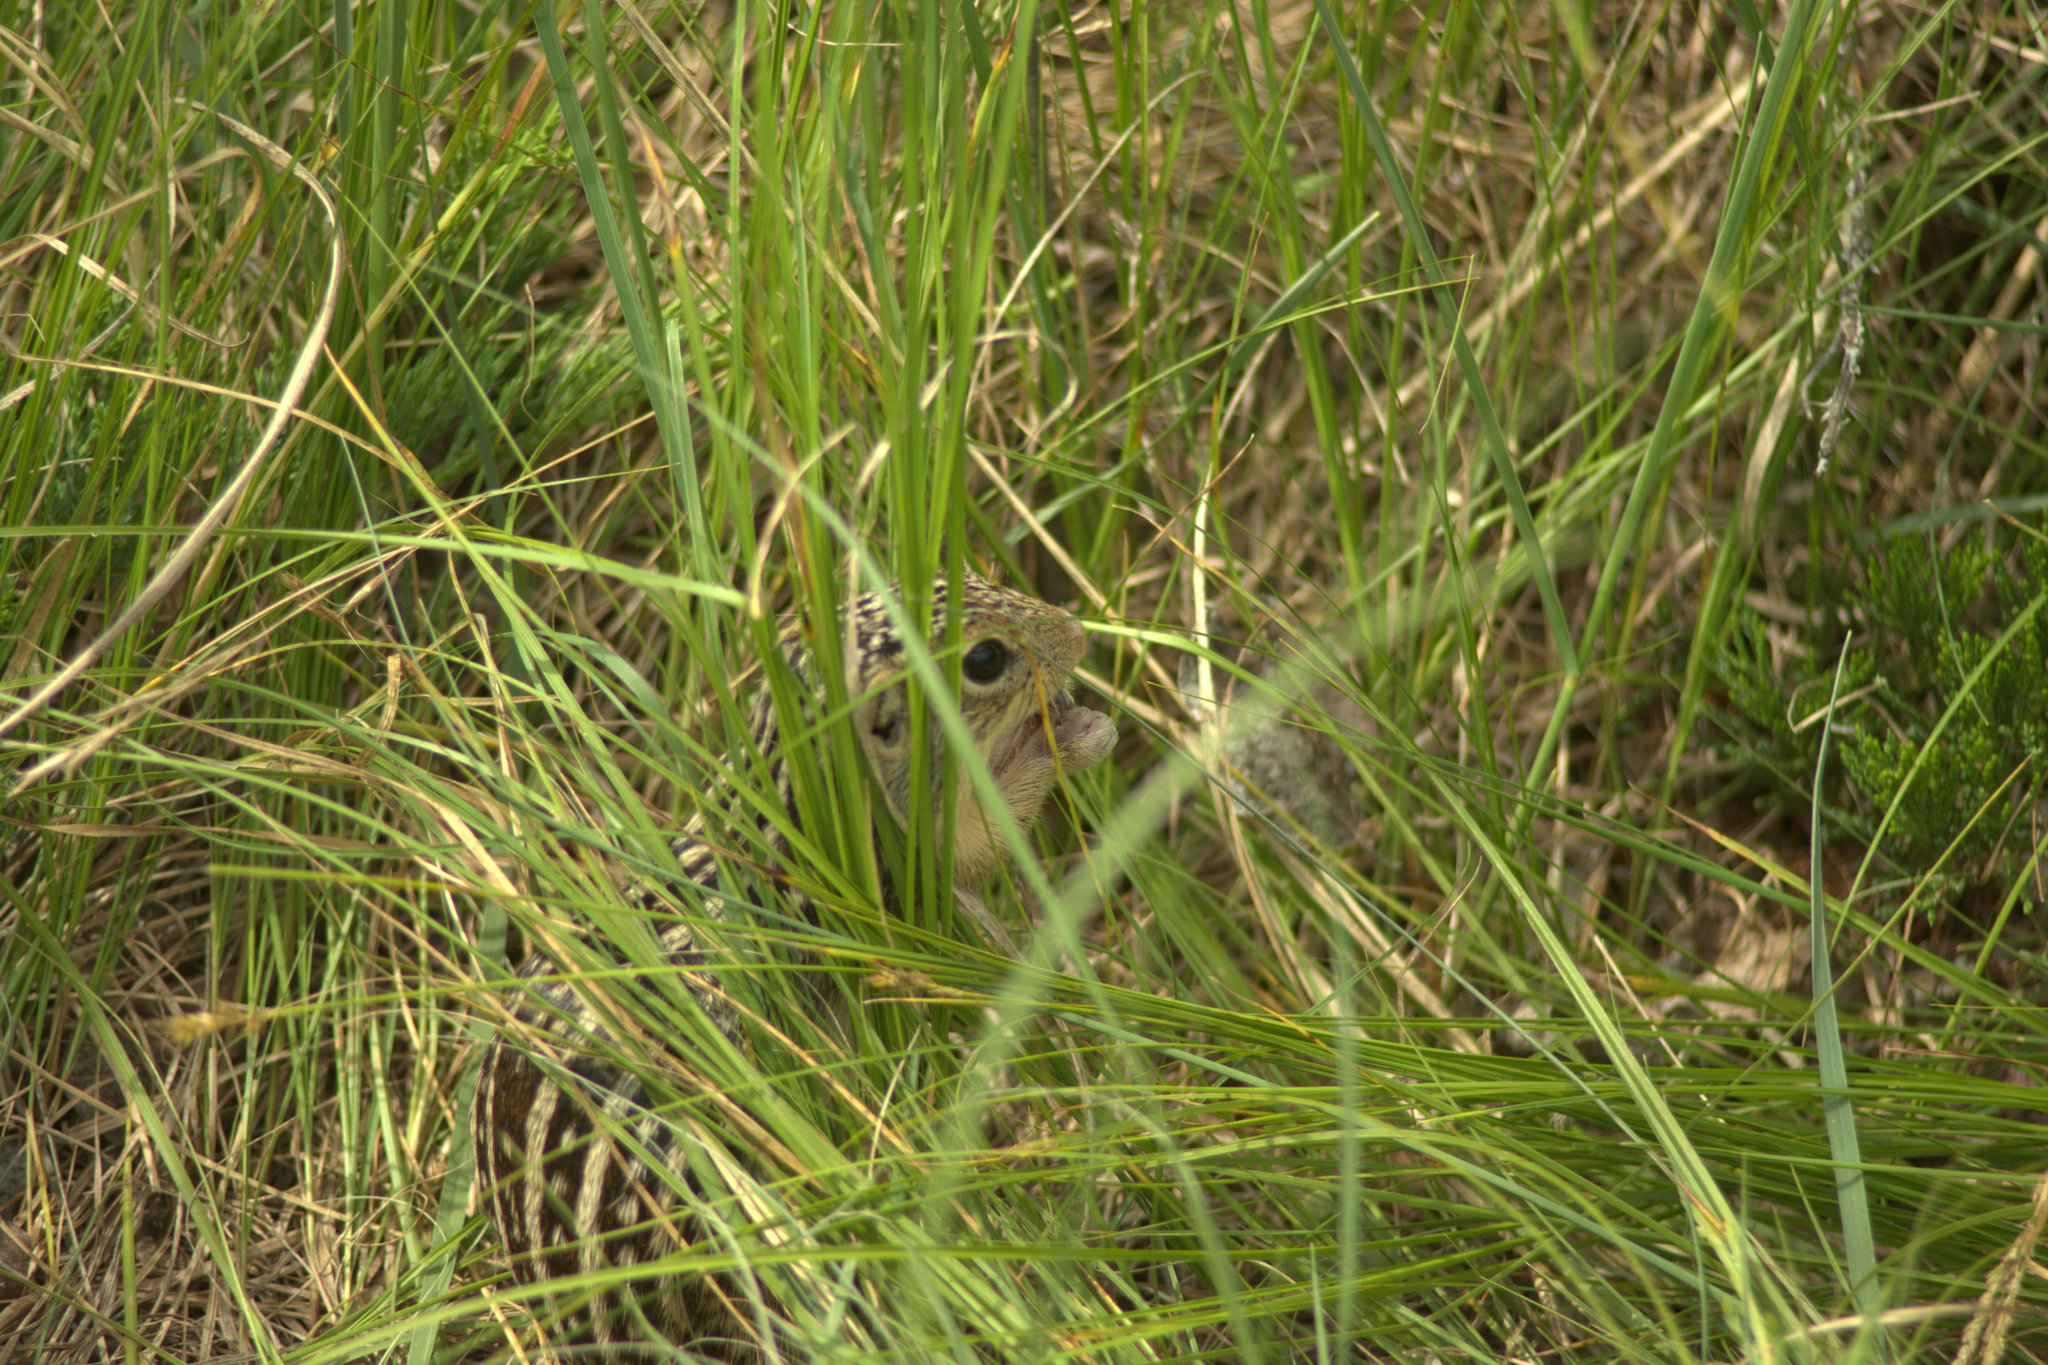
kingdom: Animalia
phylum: Chordata
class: Mammalia
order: Rodentia
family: Sciuridae
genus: Ictidomys
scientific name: Ictidomys tridecemlineatus
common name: Thirteen-lined ground squirrel
